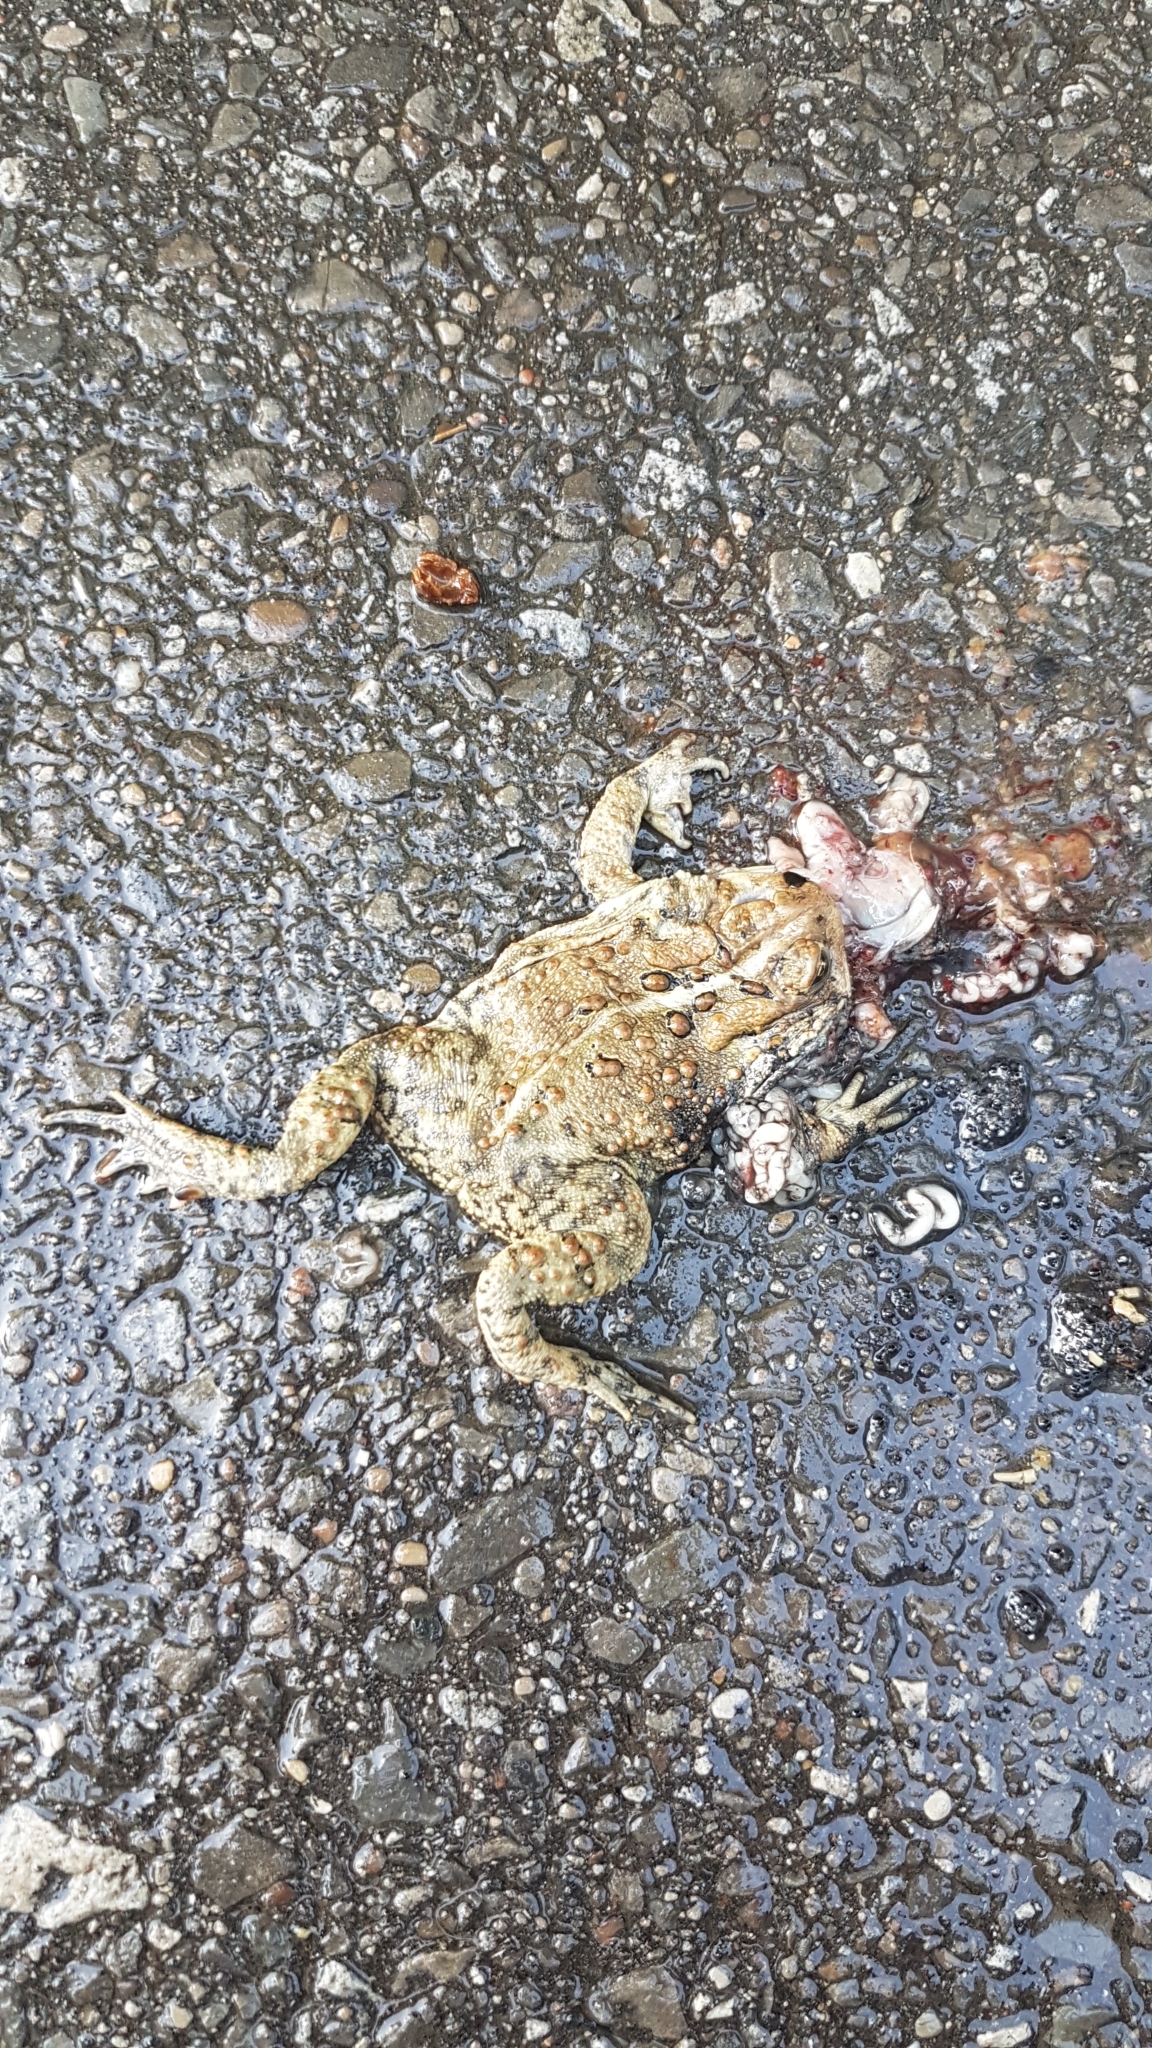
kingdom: Animalia
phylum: Chordata
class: Amphibia
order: Anura
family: Bufonidae
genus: Anaxyrus
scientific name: Anaxyrus americanus
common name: American toad
